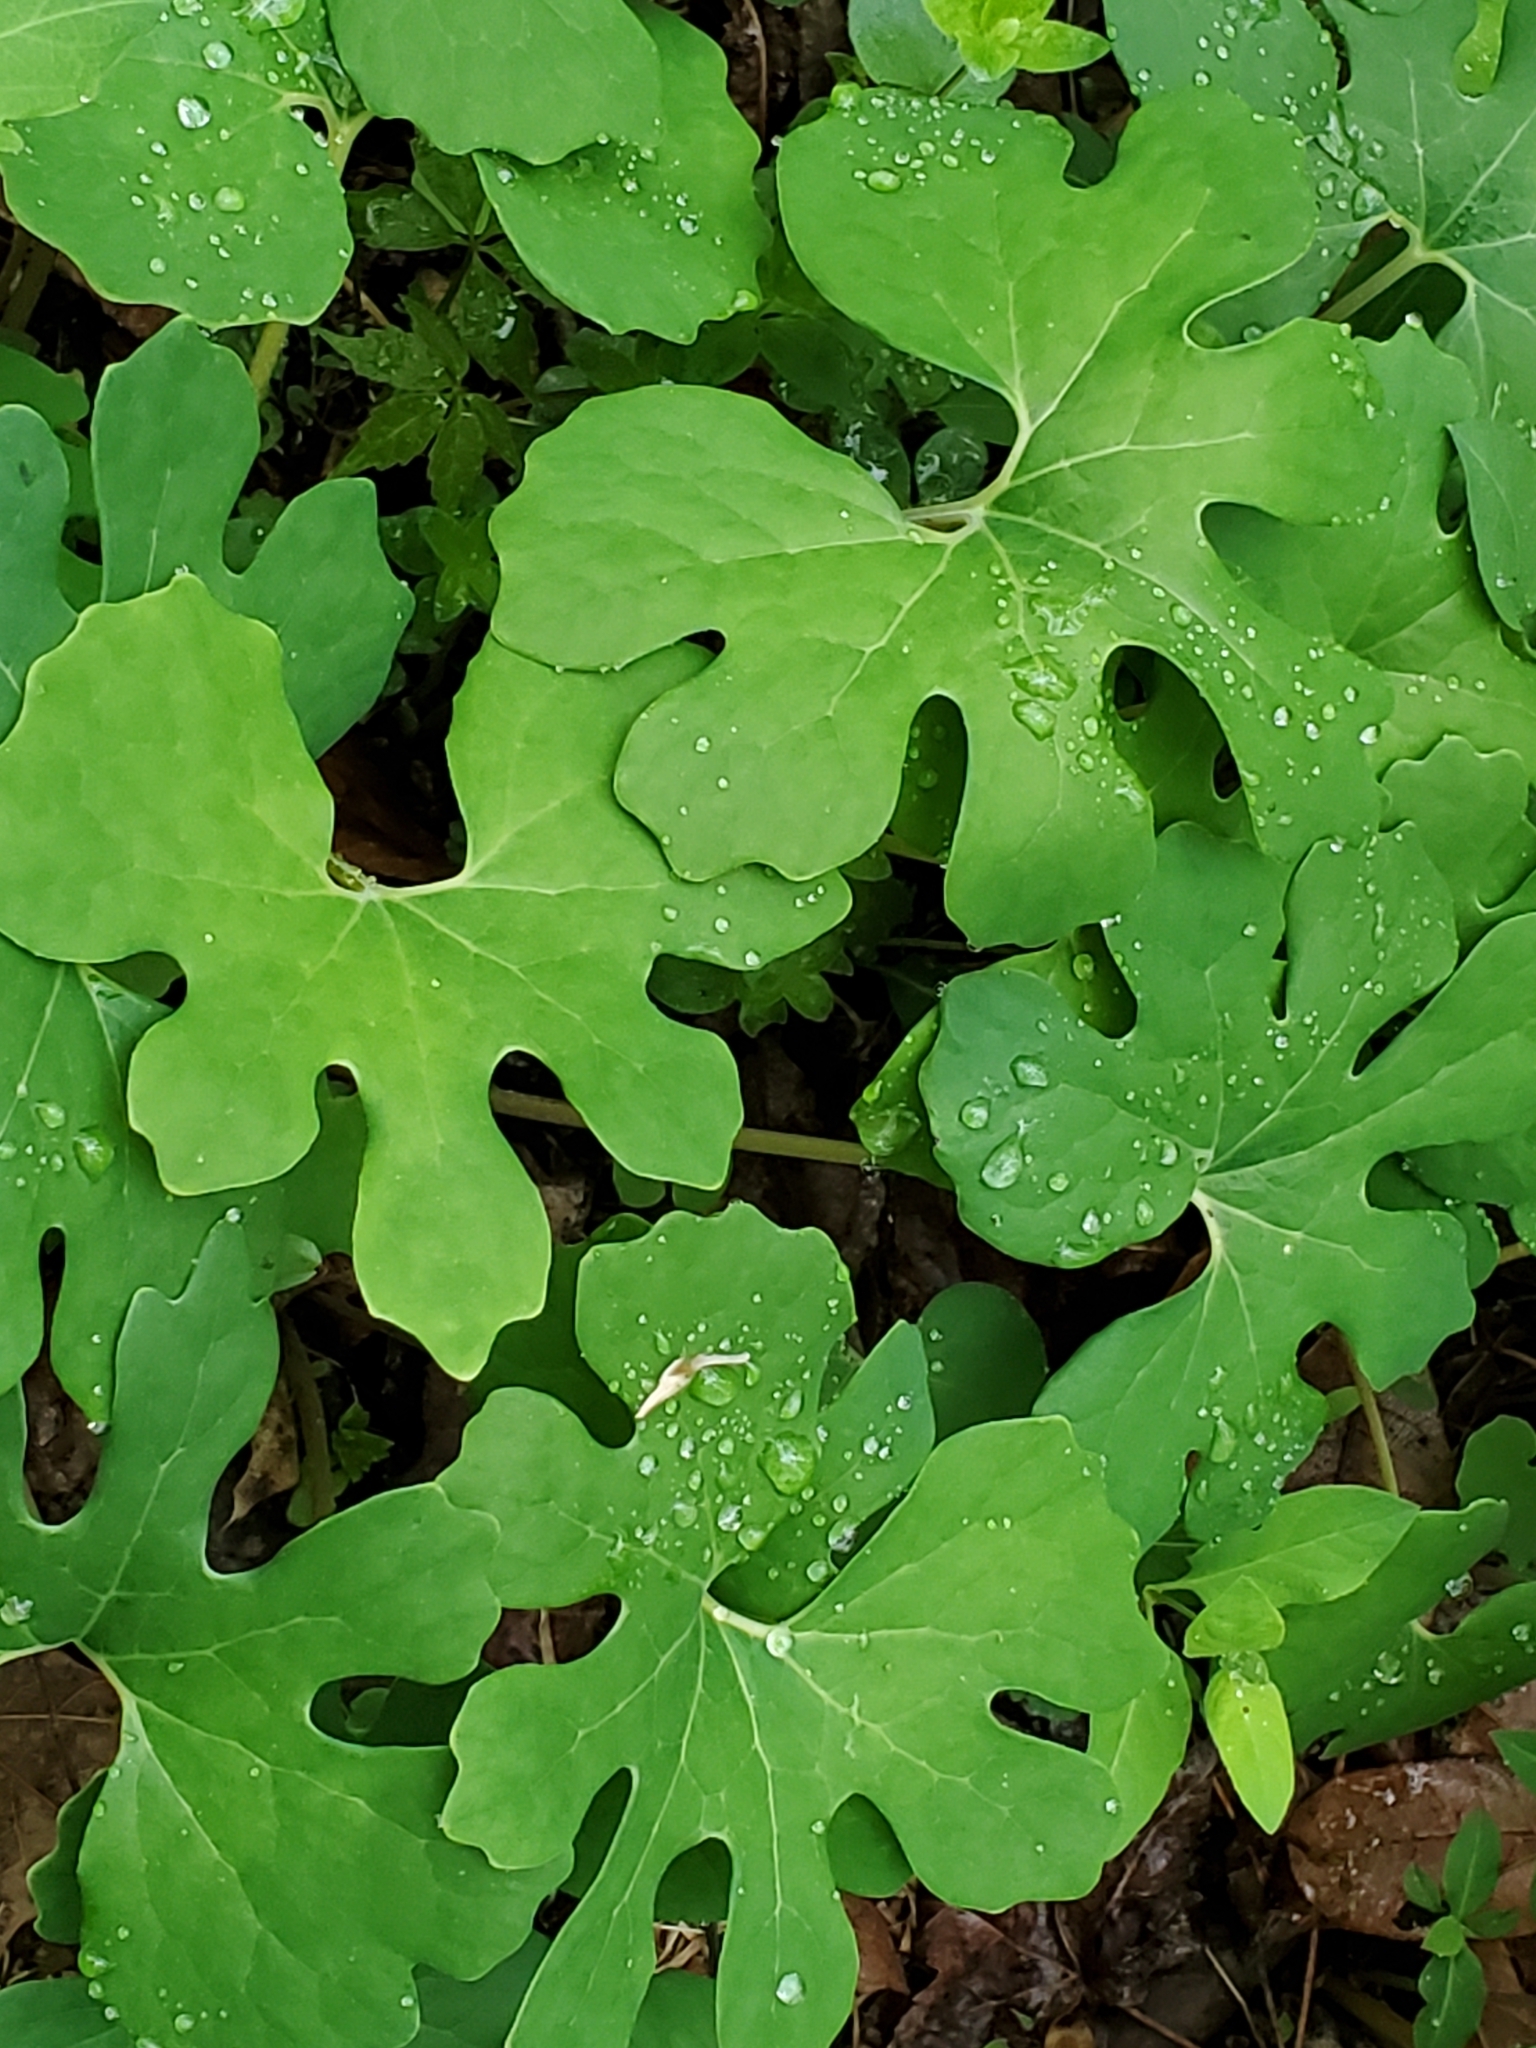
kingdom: Plantae
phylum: Tracheophyta
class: Magnoliopsida
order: Ranunculales
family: Papaveraceae
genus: Sanguinaria
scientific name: Sanguinaria canadensis
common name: Bloodroot
